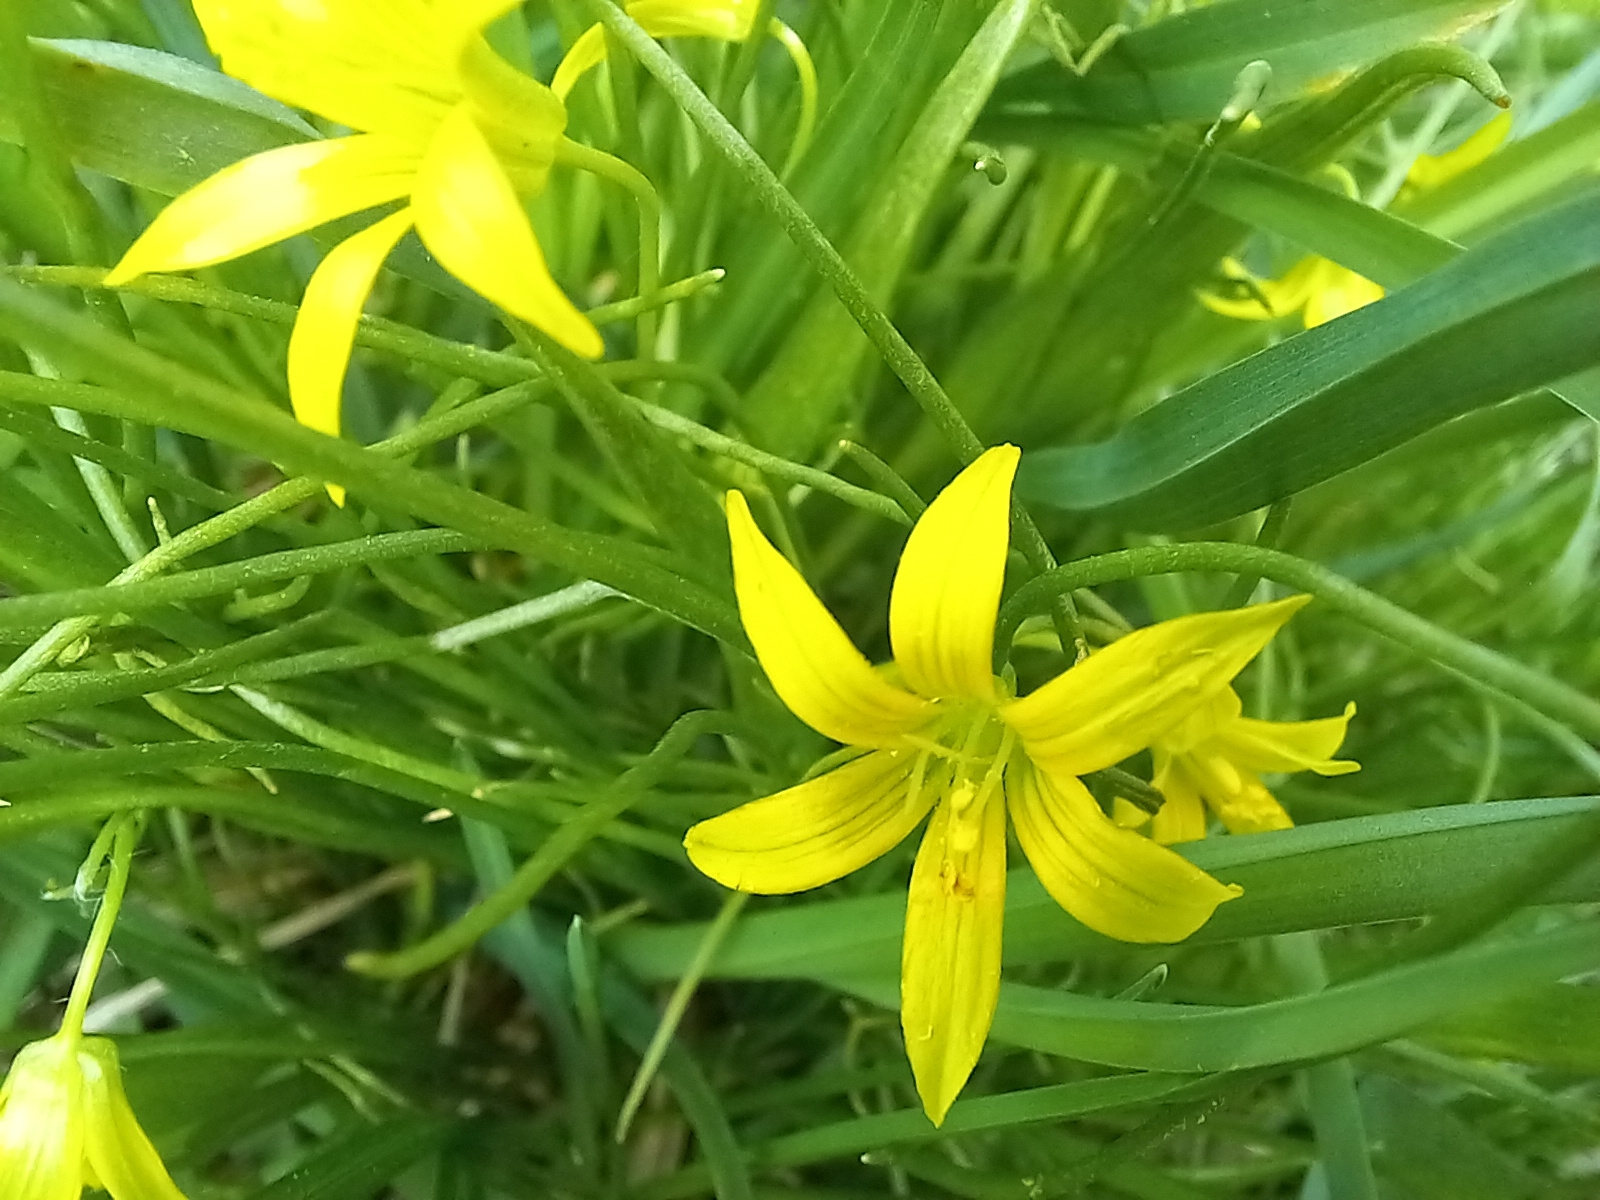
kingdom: Plantae
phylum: Tracheophyta
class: Liliopsida
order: Liliales
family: Liliaceae
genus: Gagea
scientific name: Gagea minima
